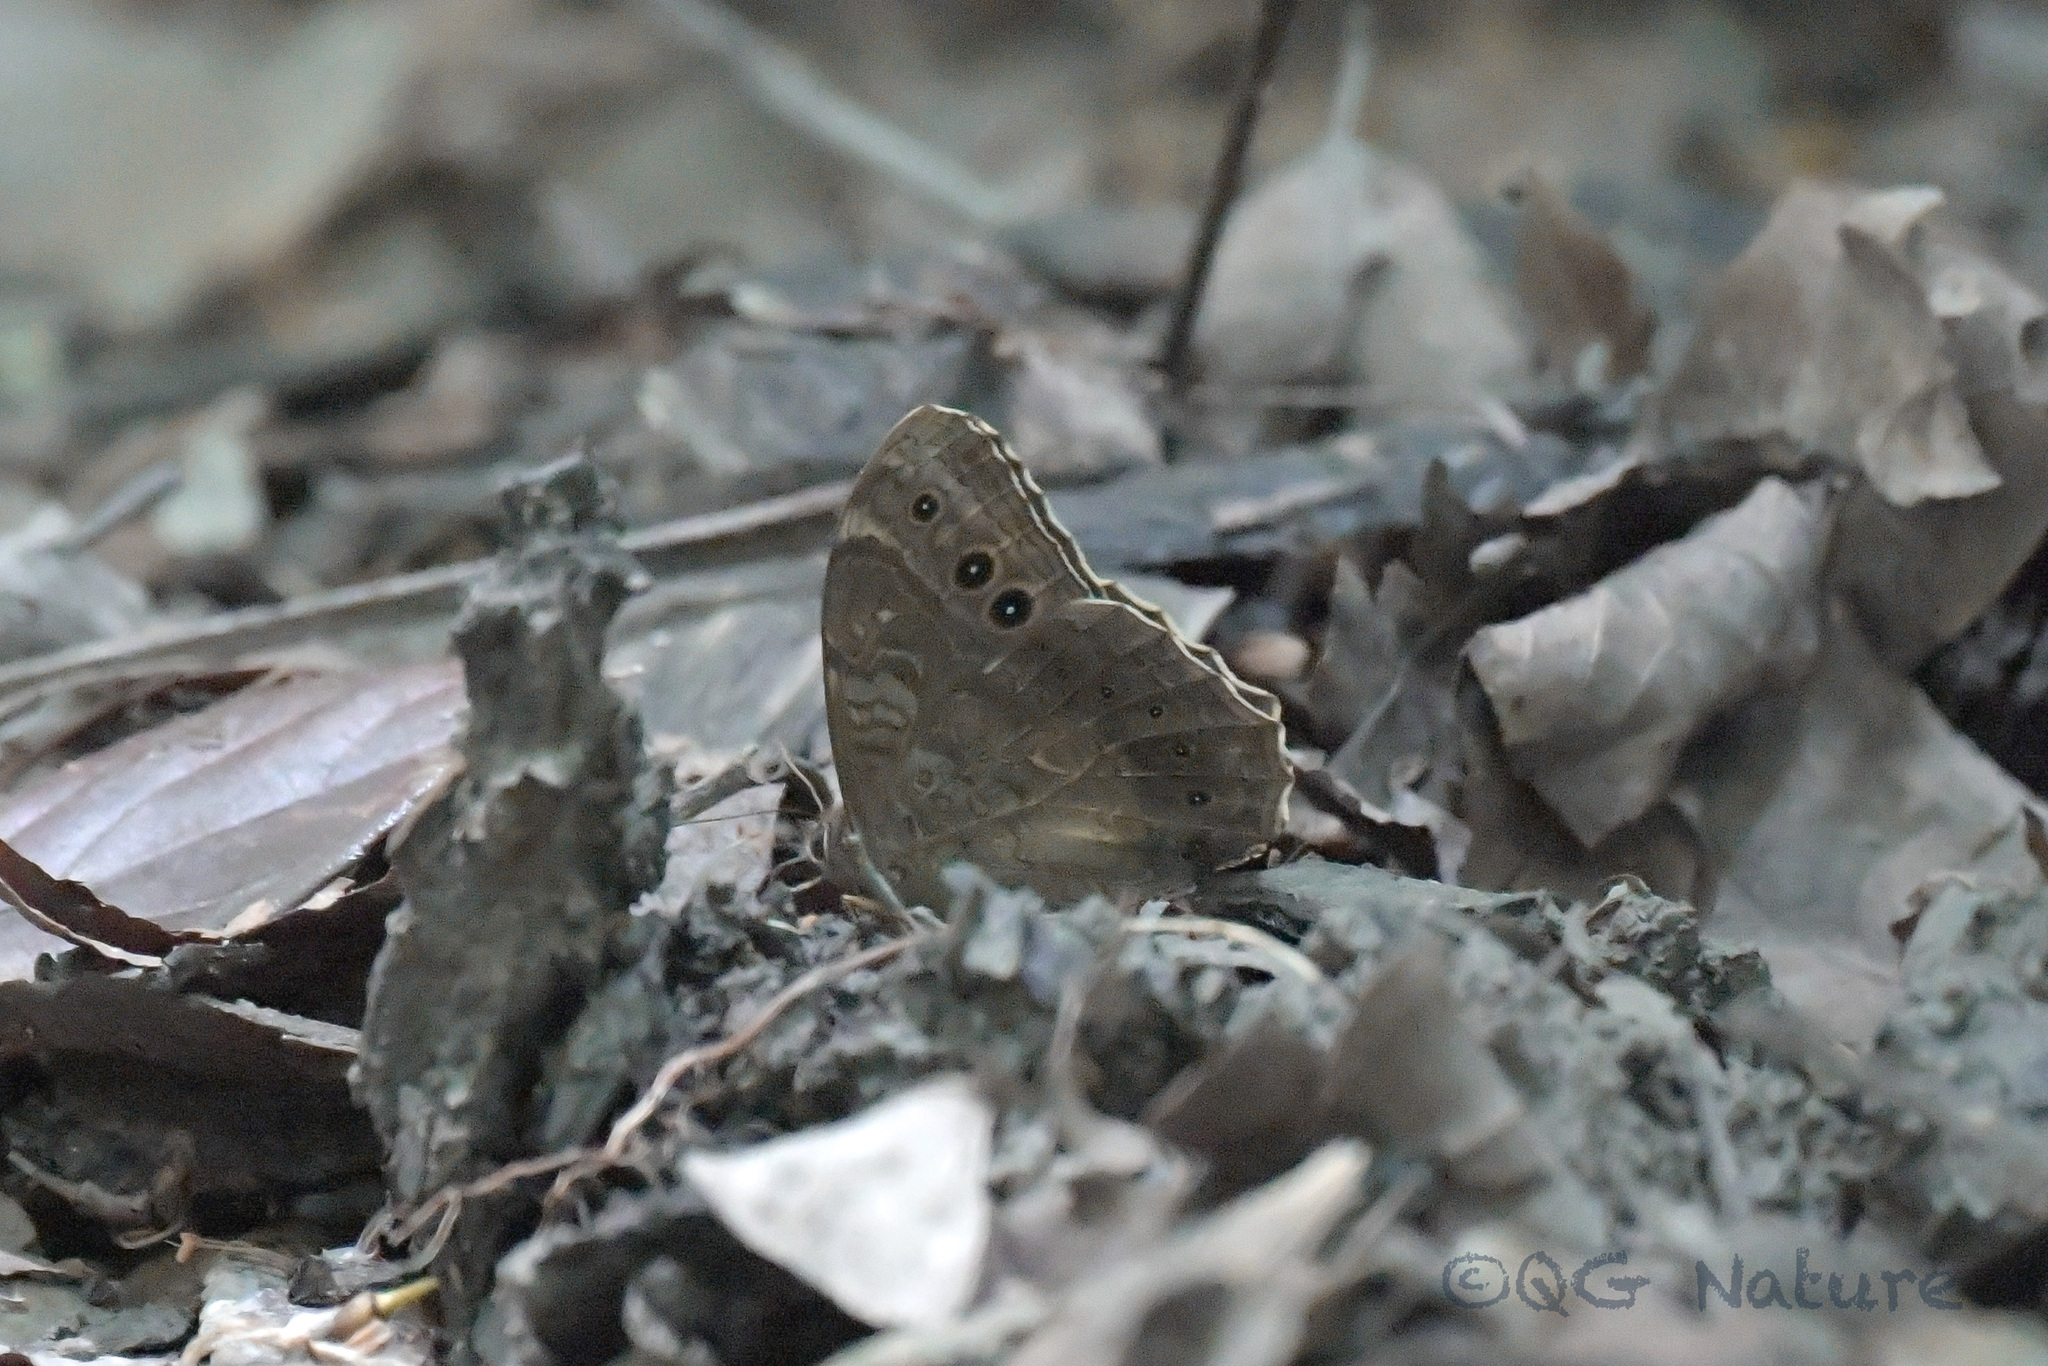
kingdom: Animalia
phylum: Arthropoda
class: Insecta
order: Lepidoptera
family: Nymphalidae
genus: Neope
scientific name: Neope muirheadii
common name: Black-spotted labyrinth
